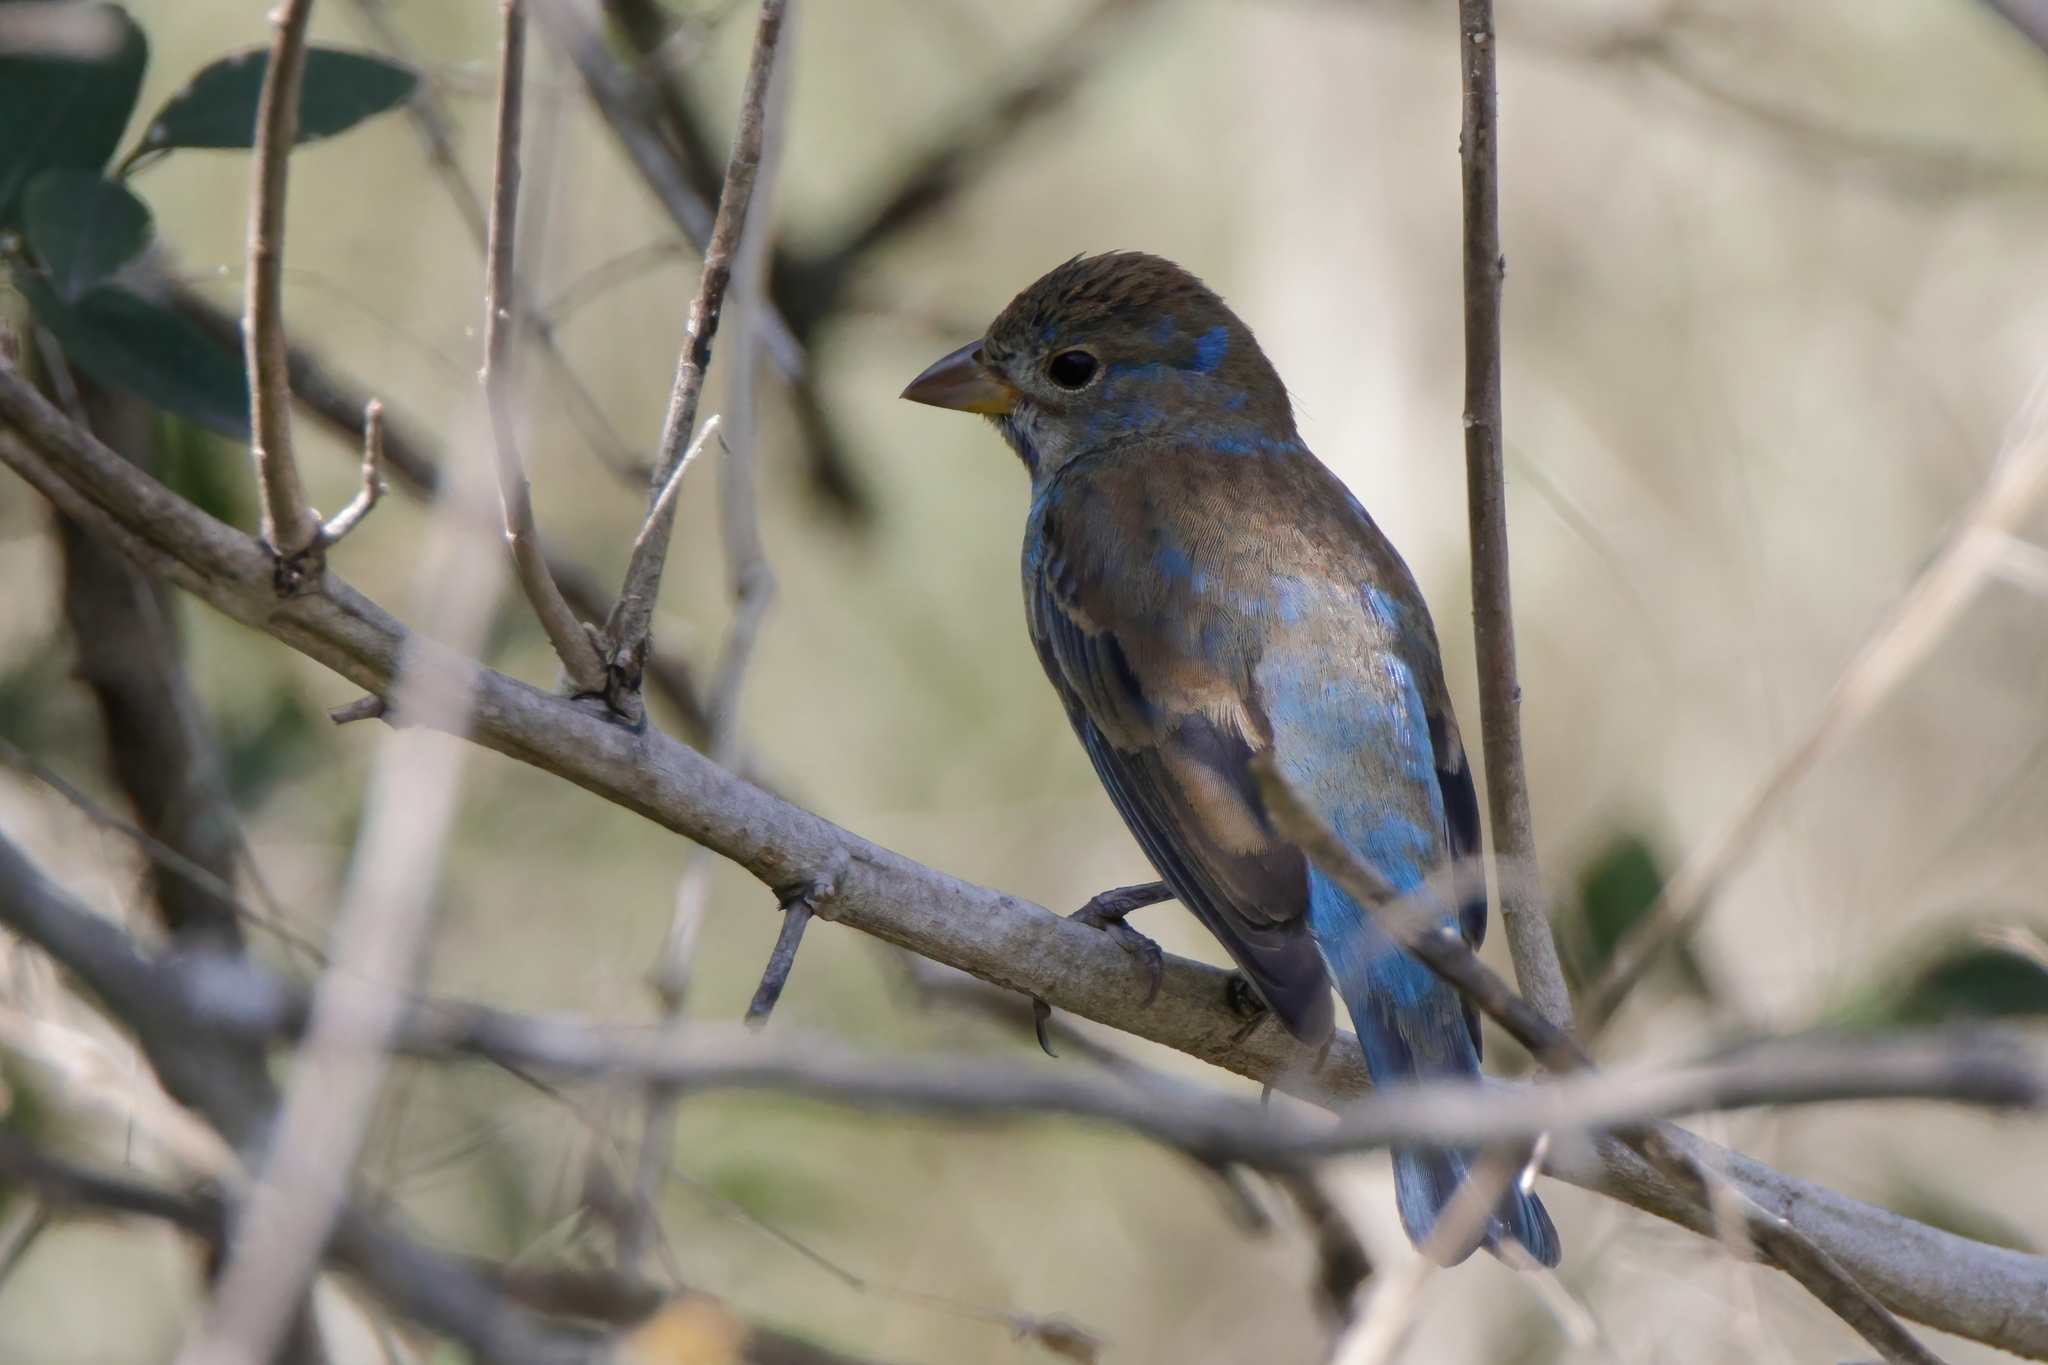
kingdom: Animalia
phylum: Chordata
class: Aves
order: Passeriformes
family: Cardinalidae
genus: Passerina
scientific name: Passerina cyanea
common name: Indigo bunting
